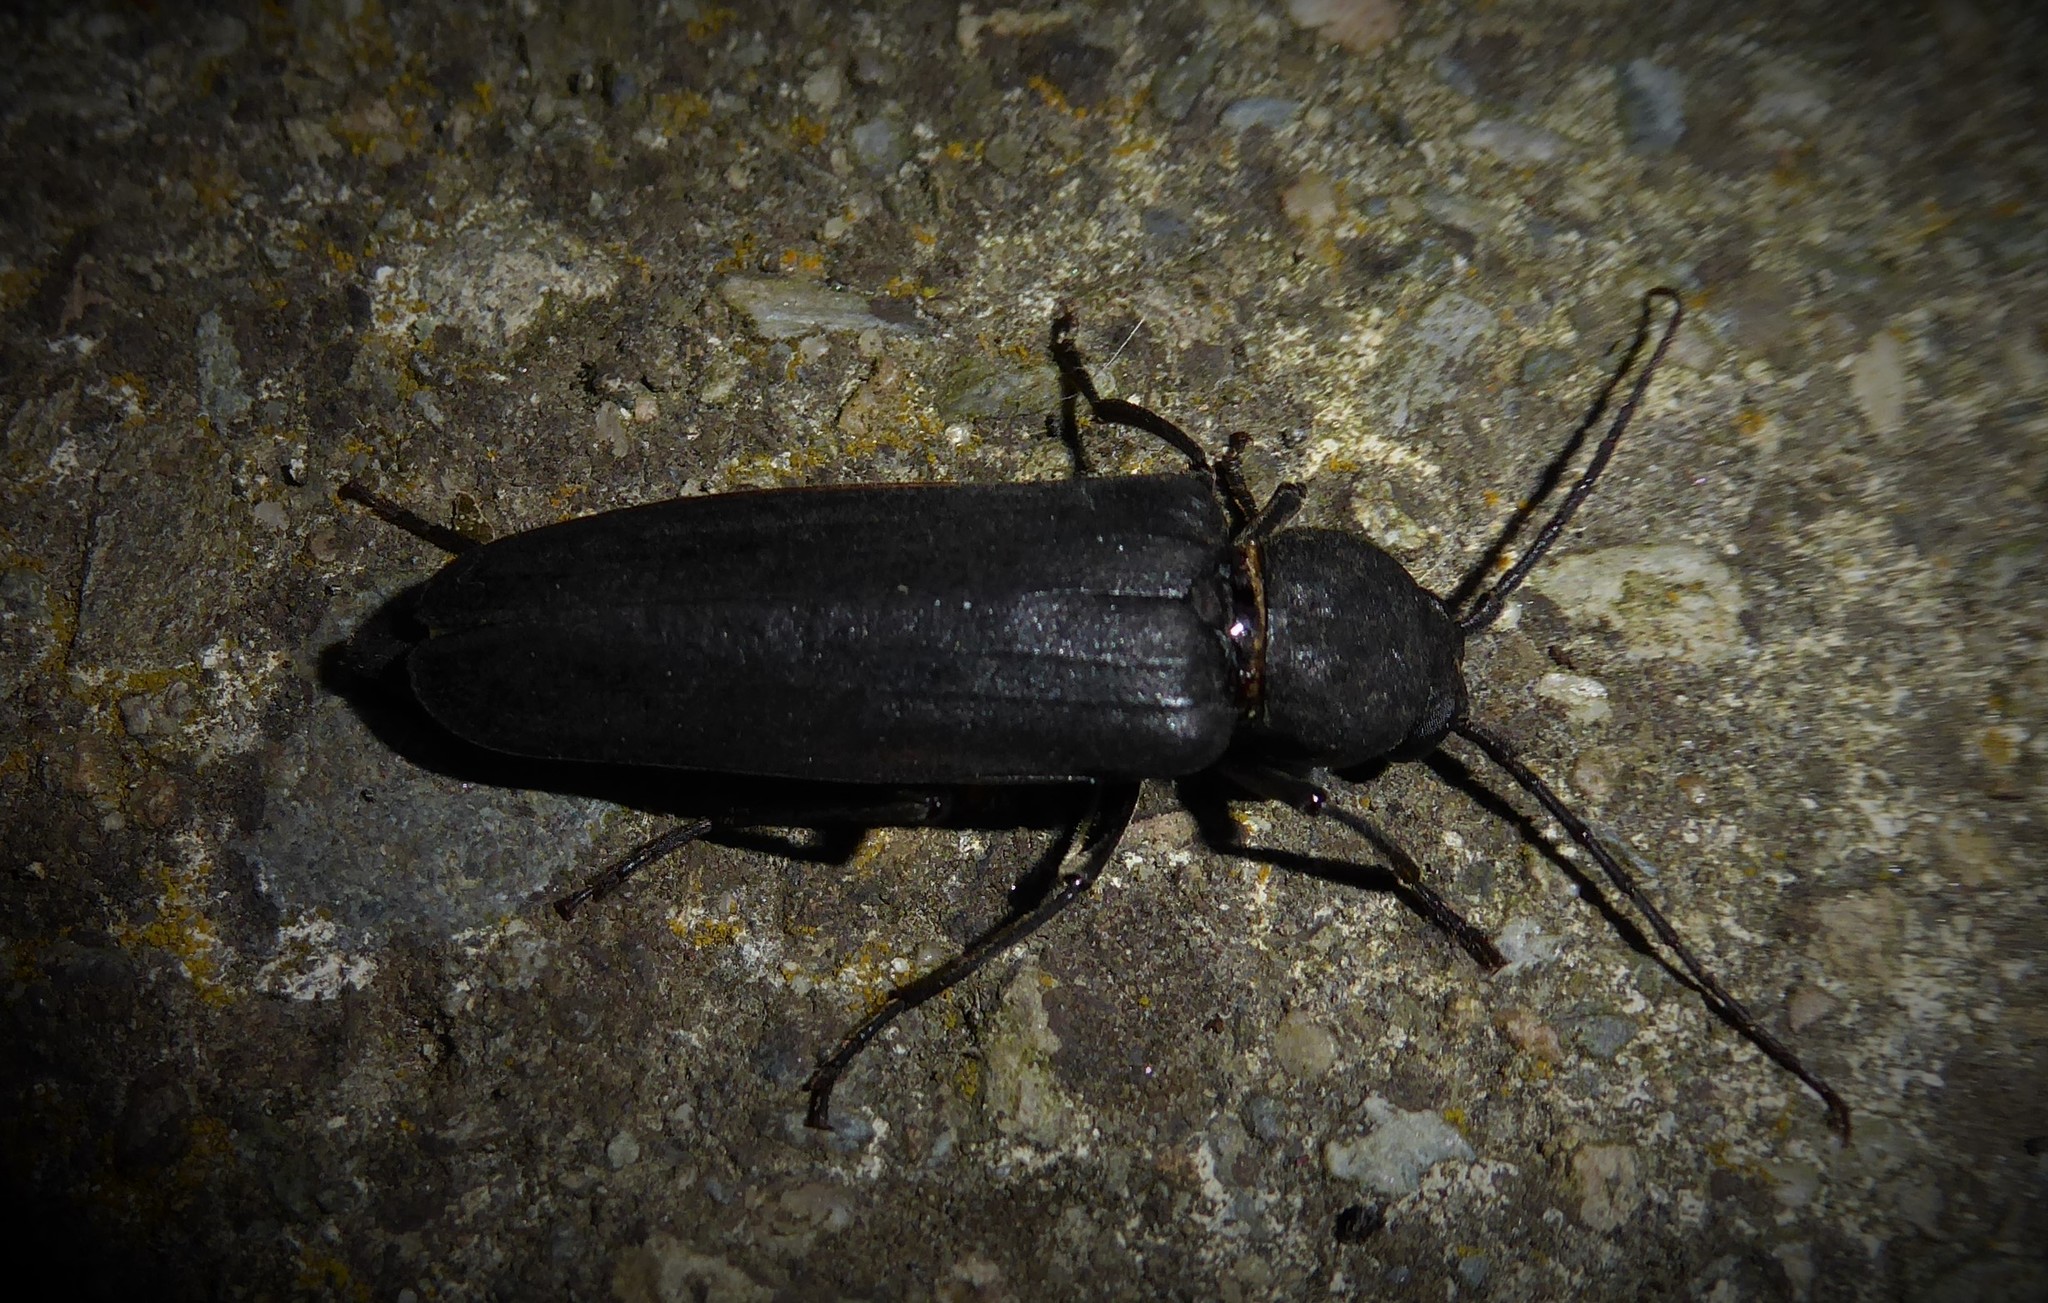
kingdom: Animalia
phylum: Arthropoda
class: Insecta
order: Coleoptera
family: Cerambycidae
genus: Arhopalus
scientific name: Arhopalus ferus
